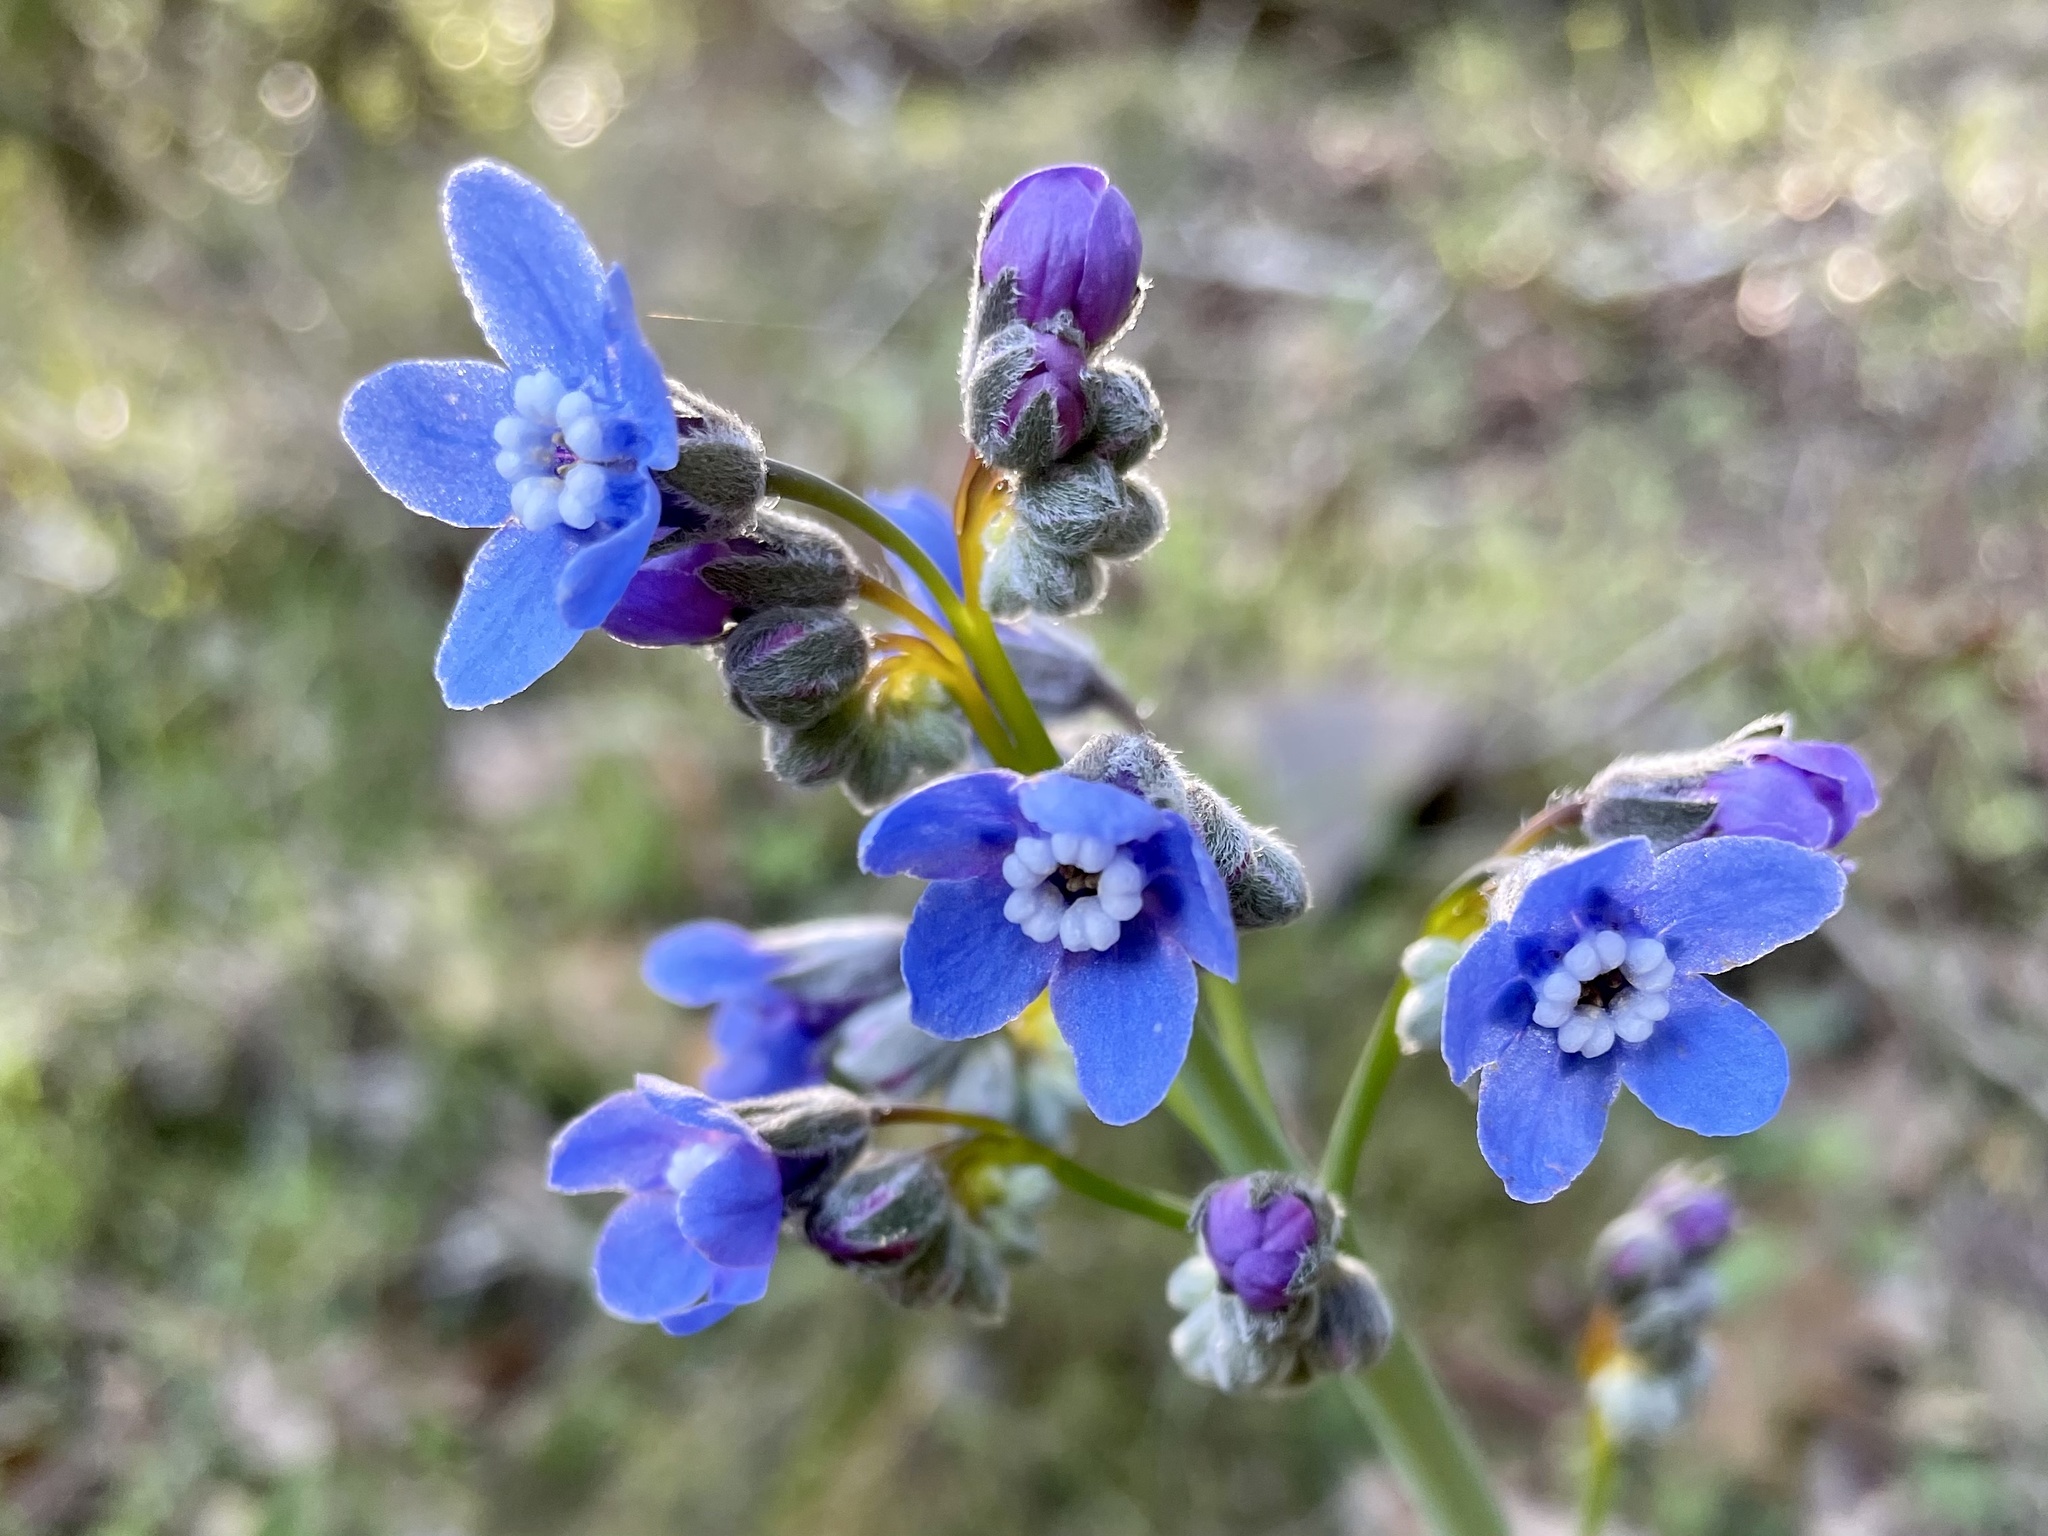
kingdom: Plantae
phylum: Tracheophyta
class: Magnoliopsida
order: Boraginales
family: Boraginaceae
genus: Adelinia
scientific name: Adelinia grande
